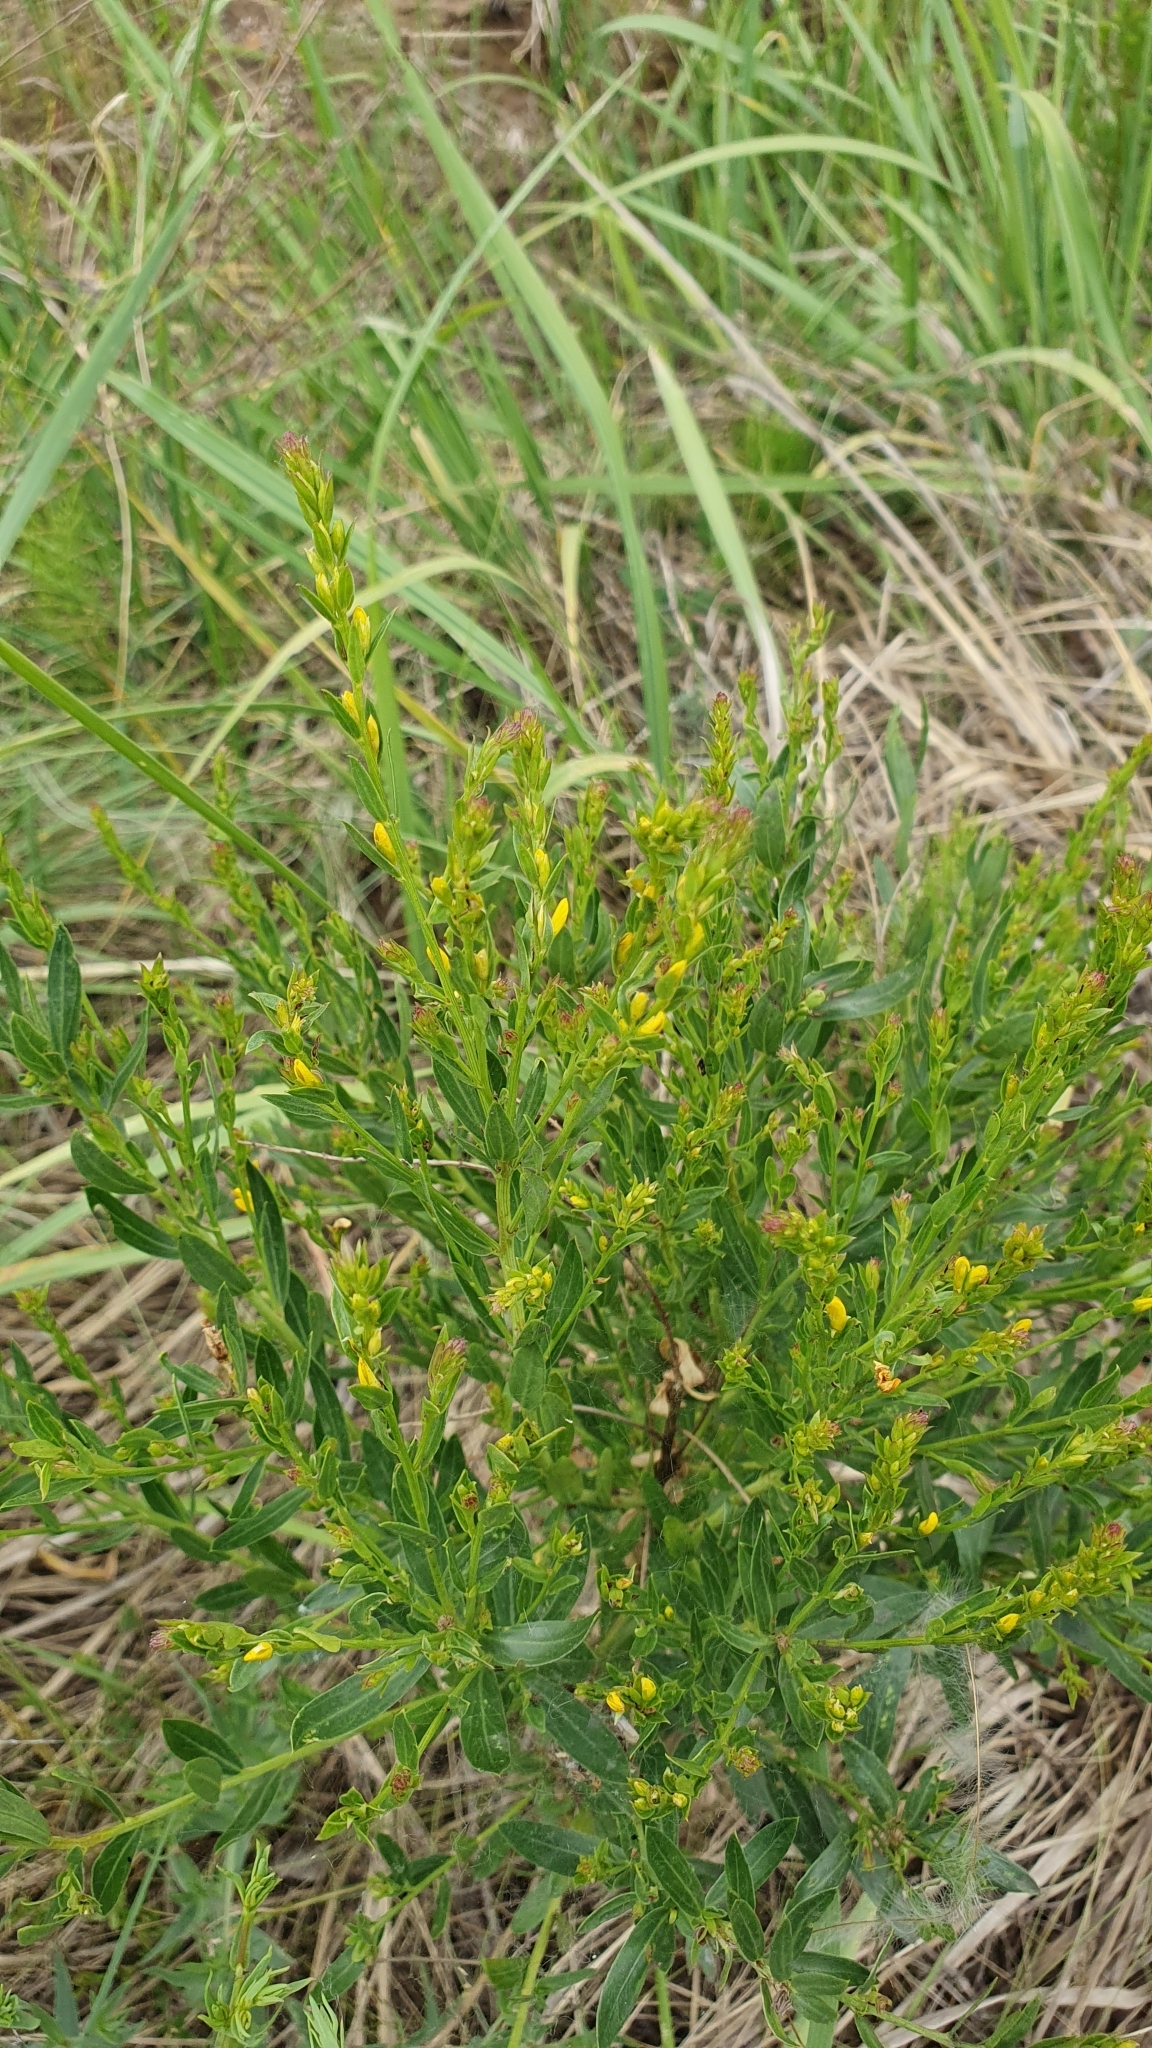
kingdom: Plantae
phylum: Tracheophyta
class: Magnoliopsida
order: Fabales
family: Fabaceae
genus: Genista
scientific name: Genista tinctoria
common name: Dyer's greenweed
